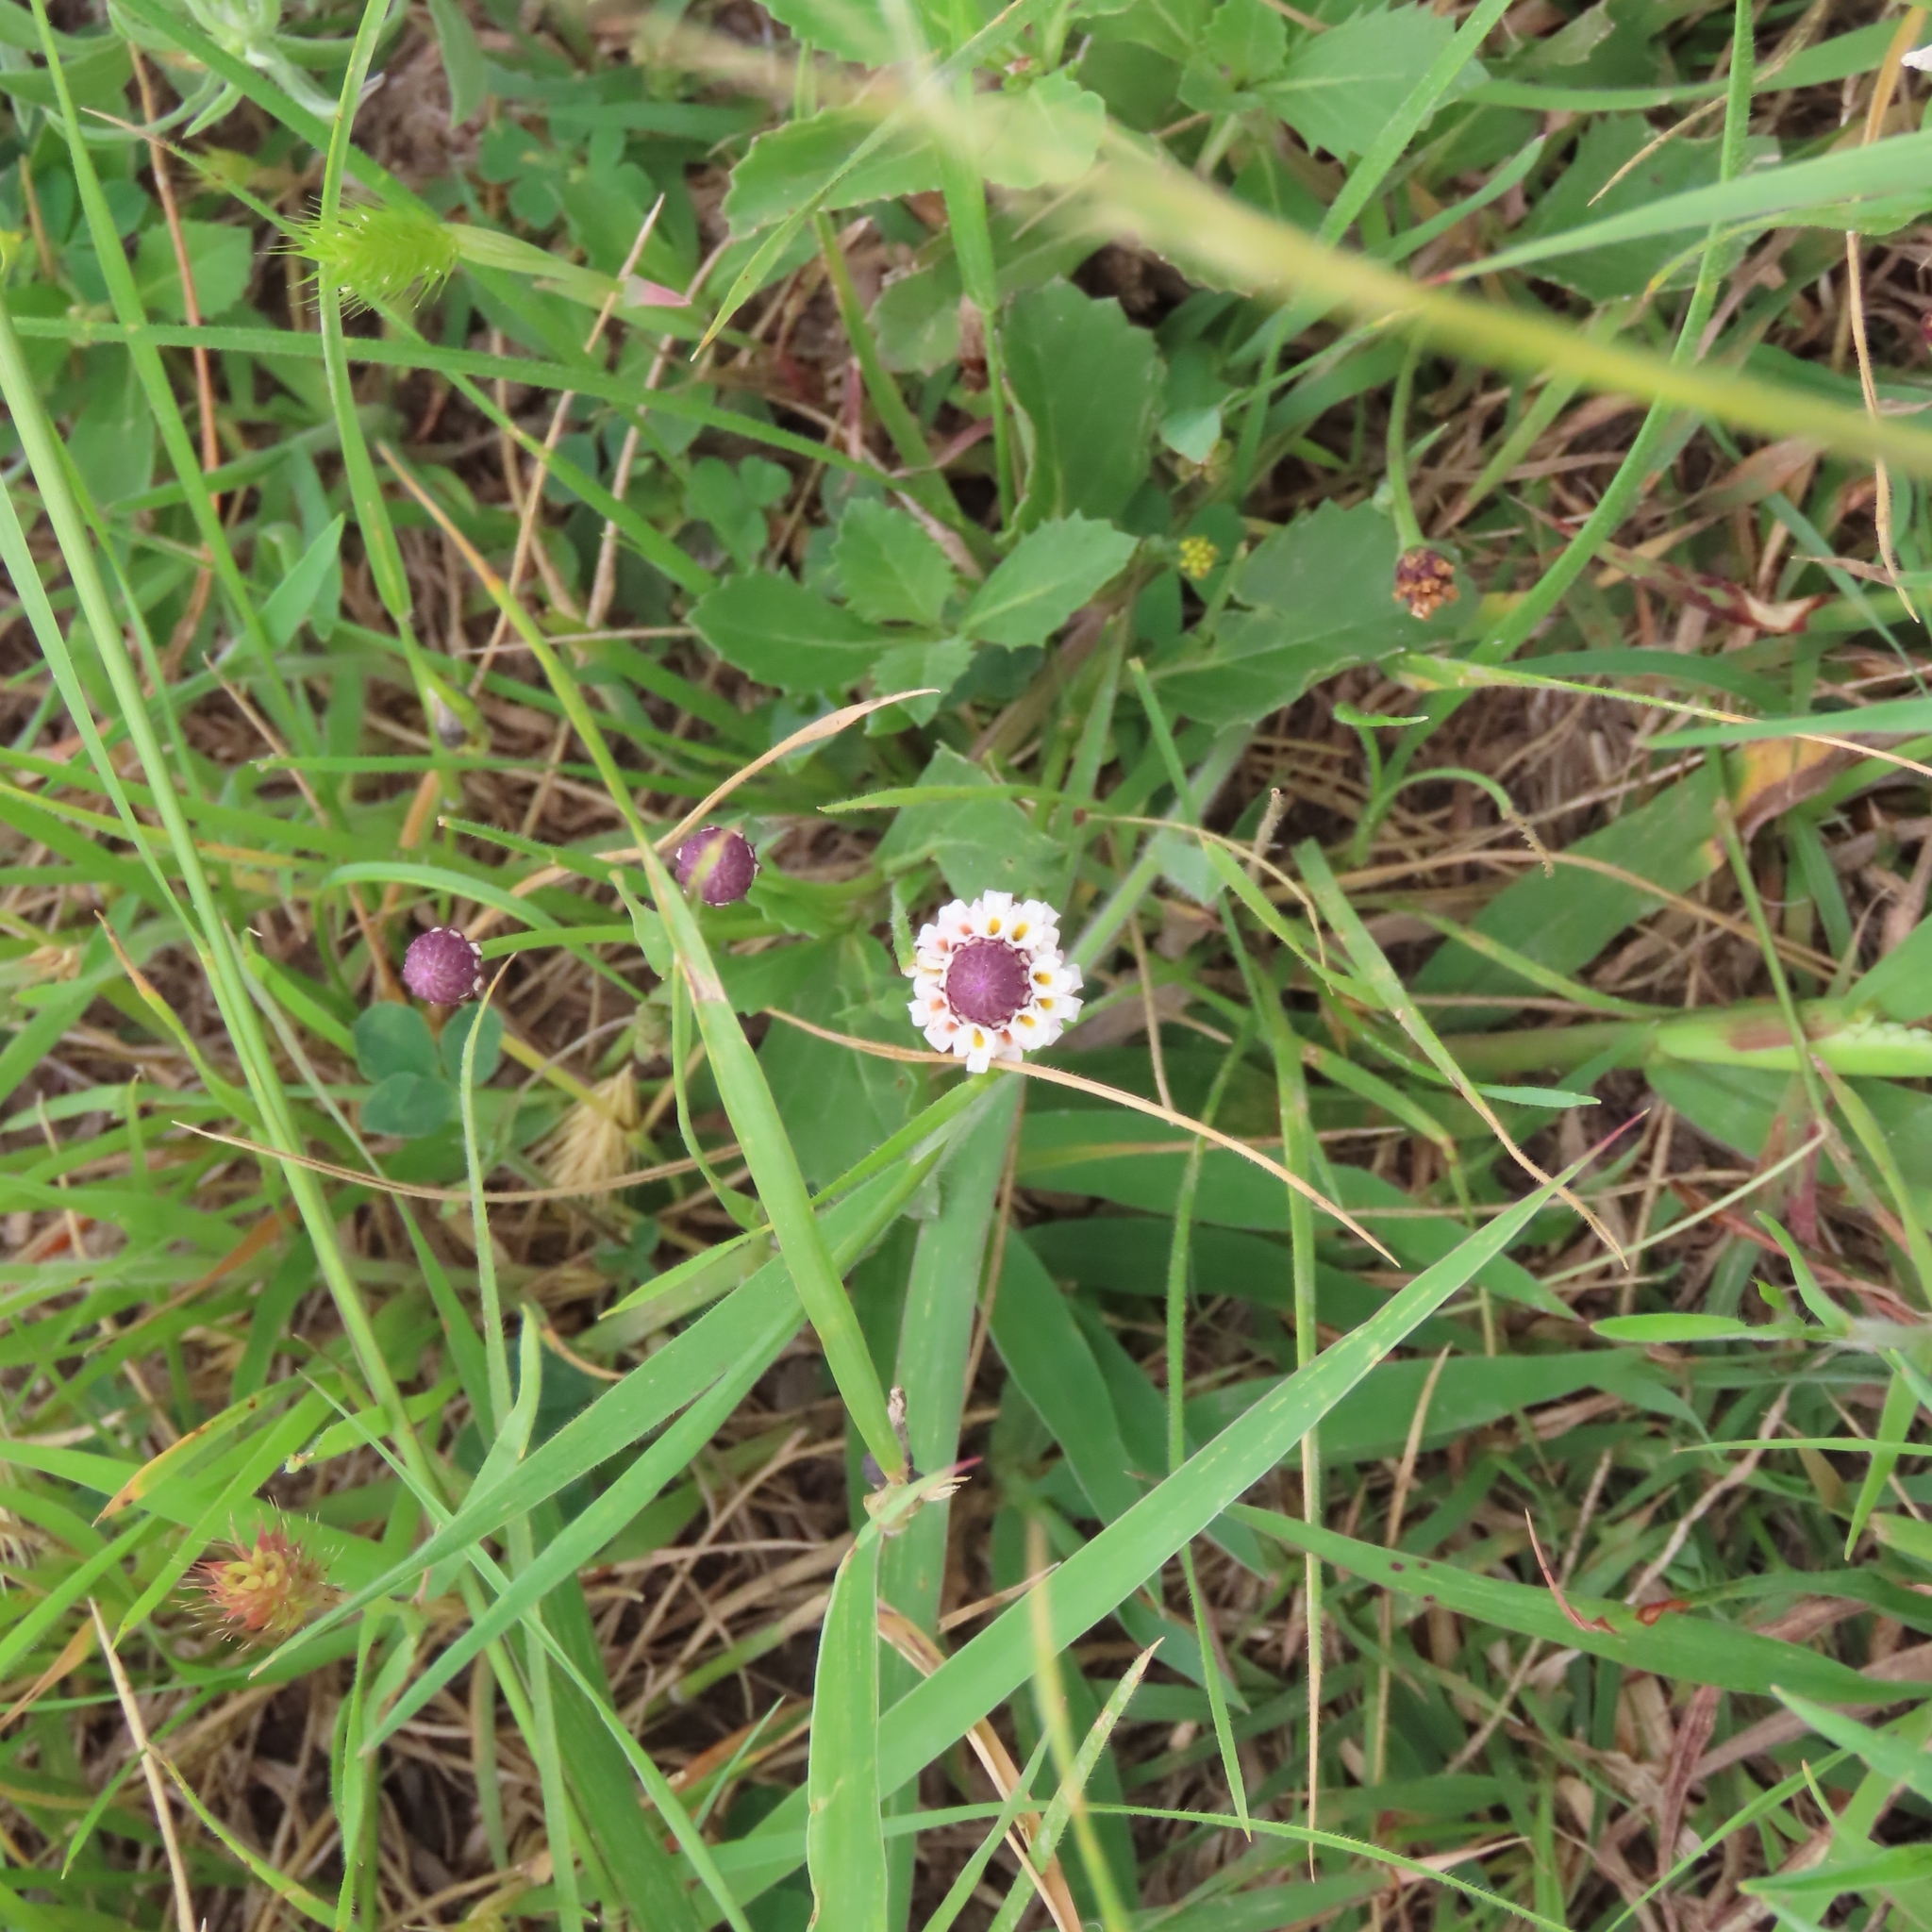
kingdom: Plantae
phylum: Tracheophyta
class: Magnoliopsida
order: Lamiales
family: Verbenaceae
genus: Phyla
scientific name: Phyla nodiflora
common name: Frogfruit
